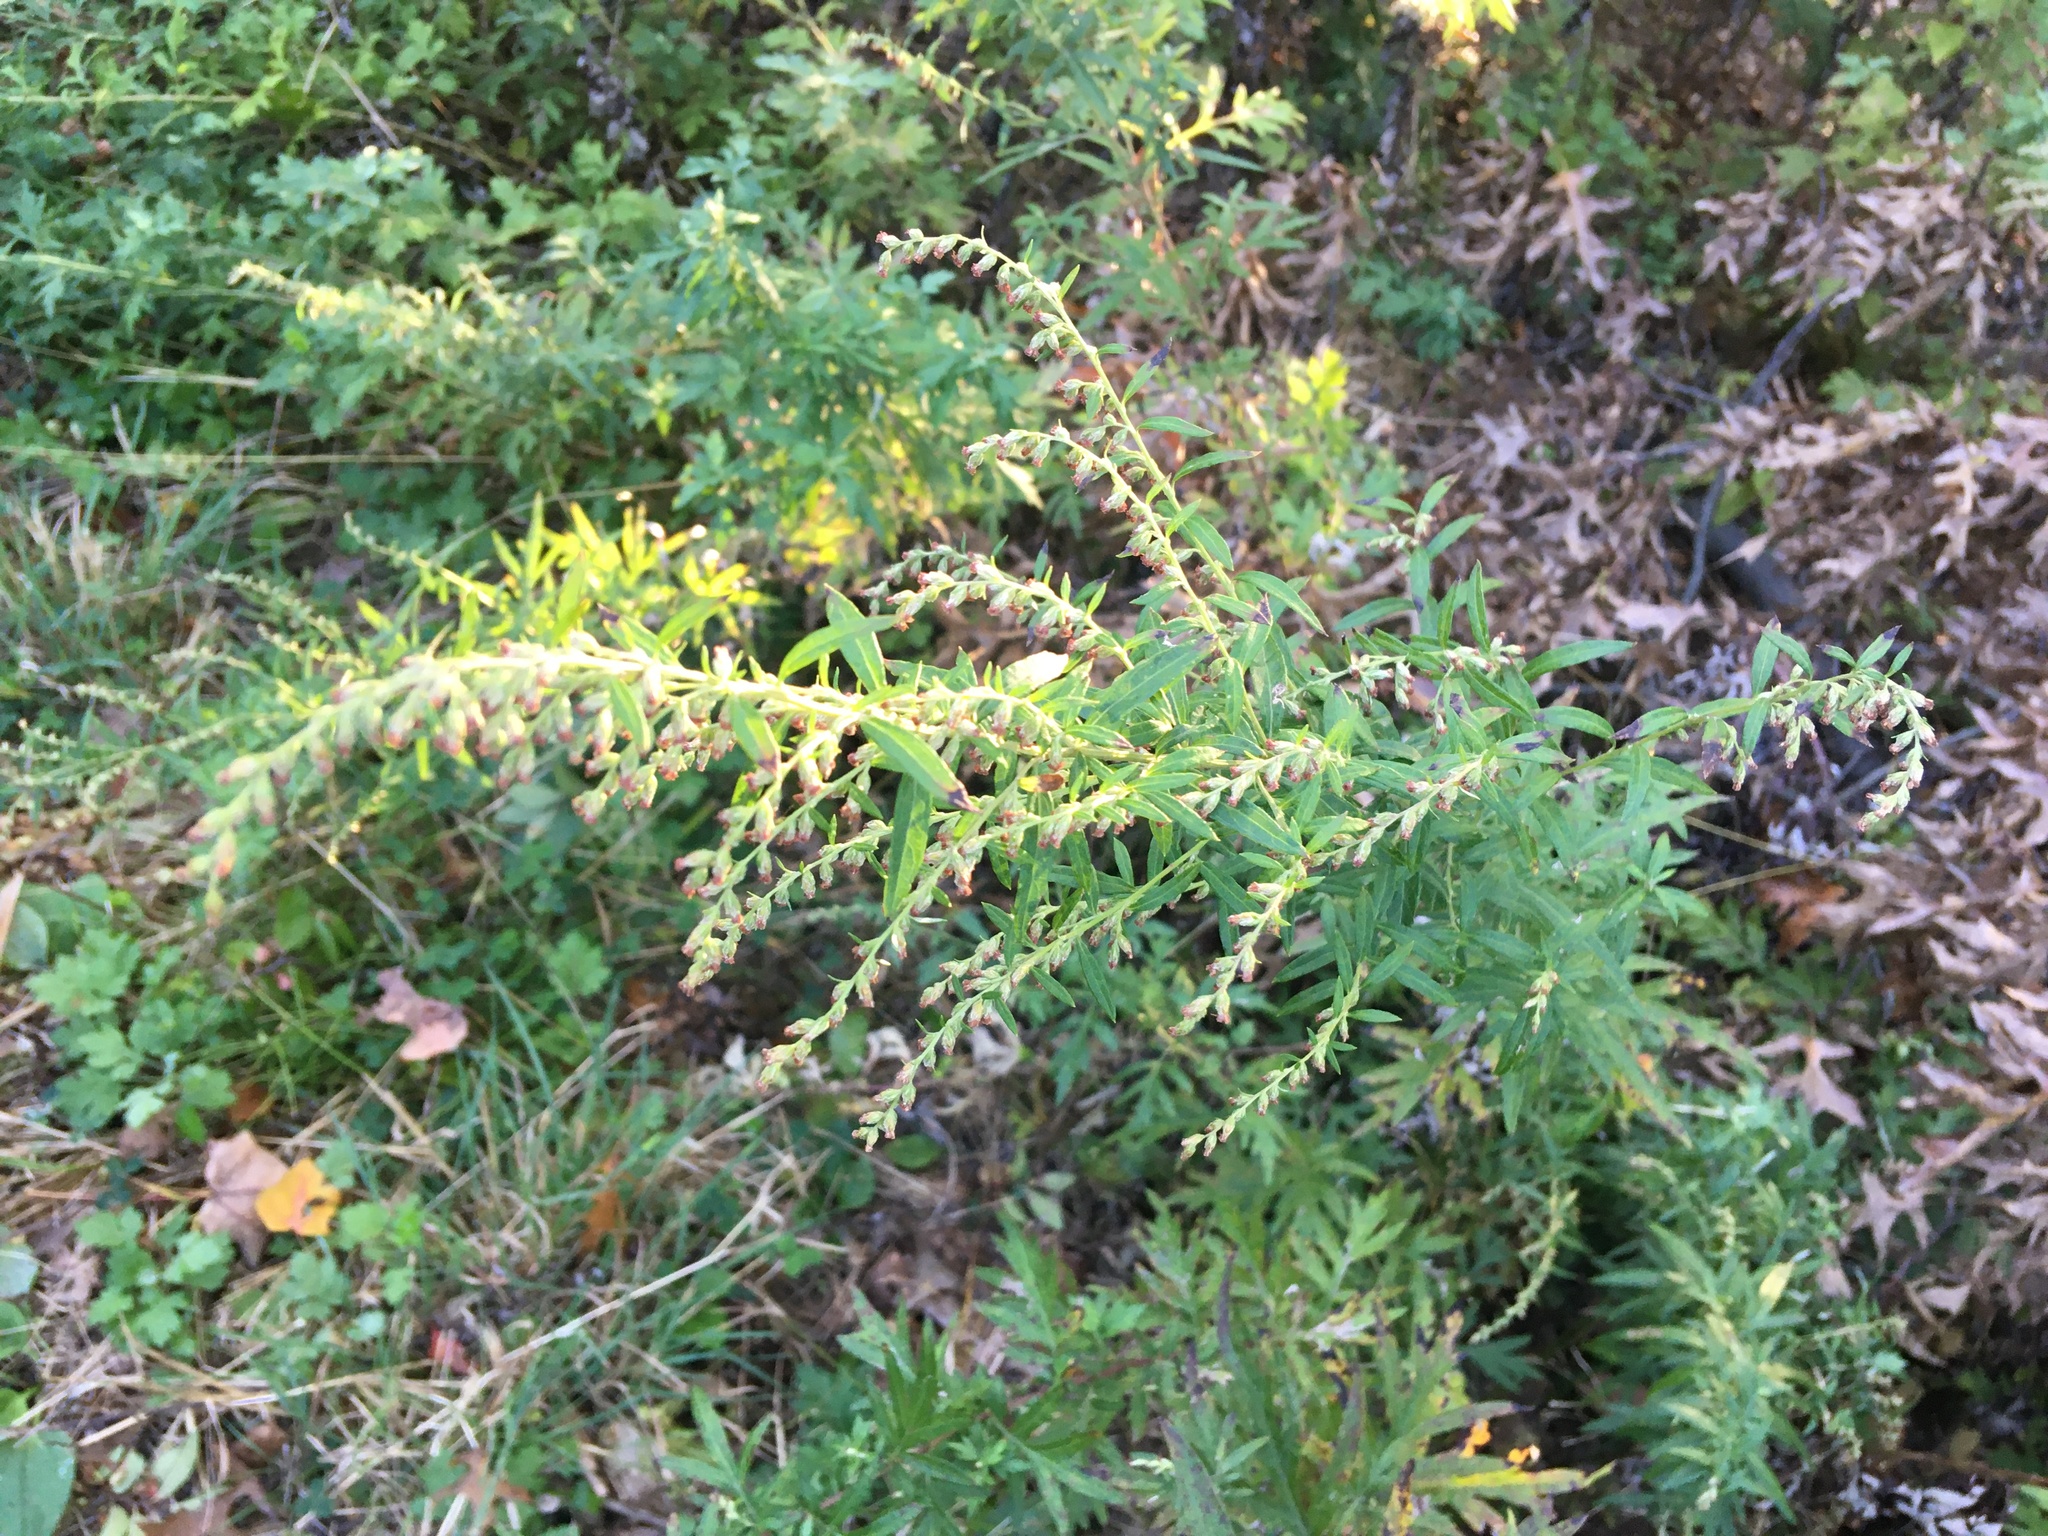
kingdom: Plantae
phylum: Tracheophyta
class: Magnoliopsida
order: Asterales
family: Asteraceae
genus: Artemisia
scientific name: Artemisia vulgaris
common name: Mugwort
